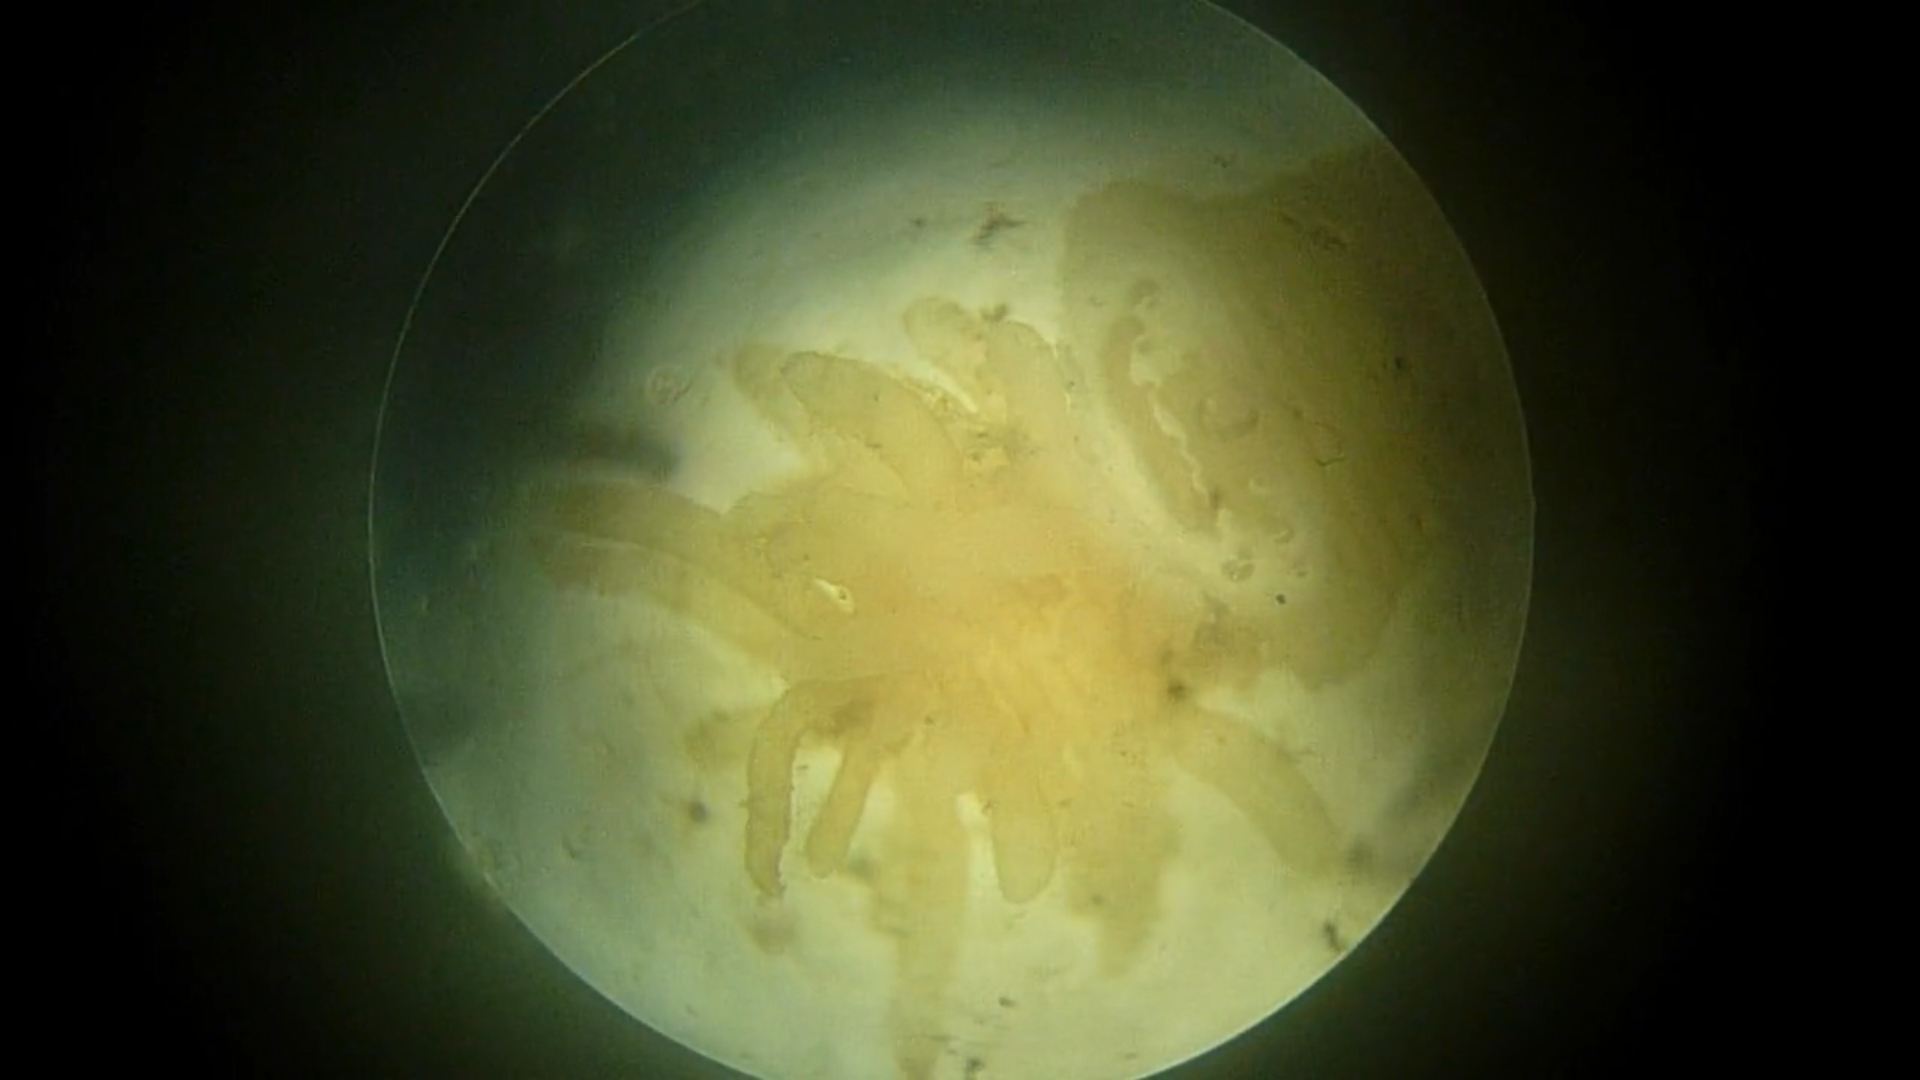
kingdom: Animalia
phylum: Priapulida
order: Priapulomorpha
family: Priapulidae
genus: Priapulus
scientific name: Priapulus caudatus
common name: Priapulid worm
